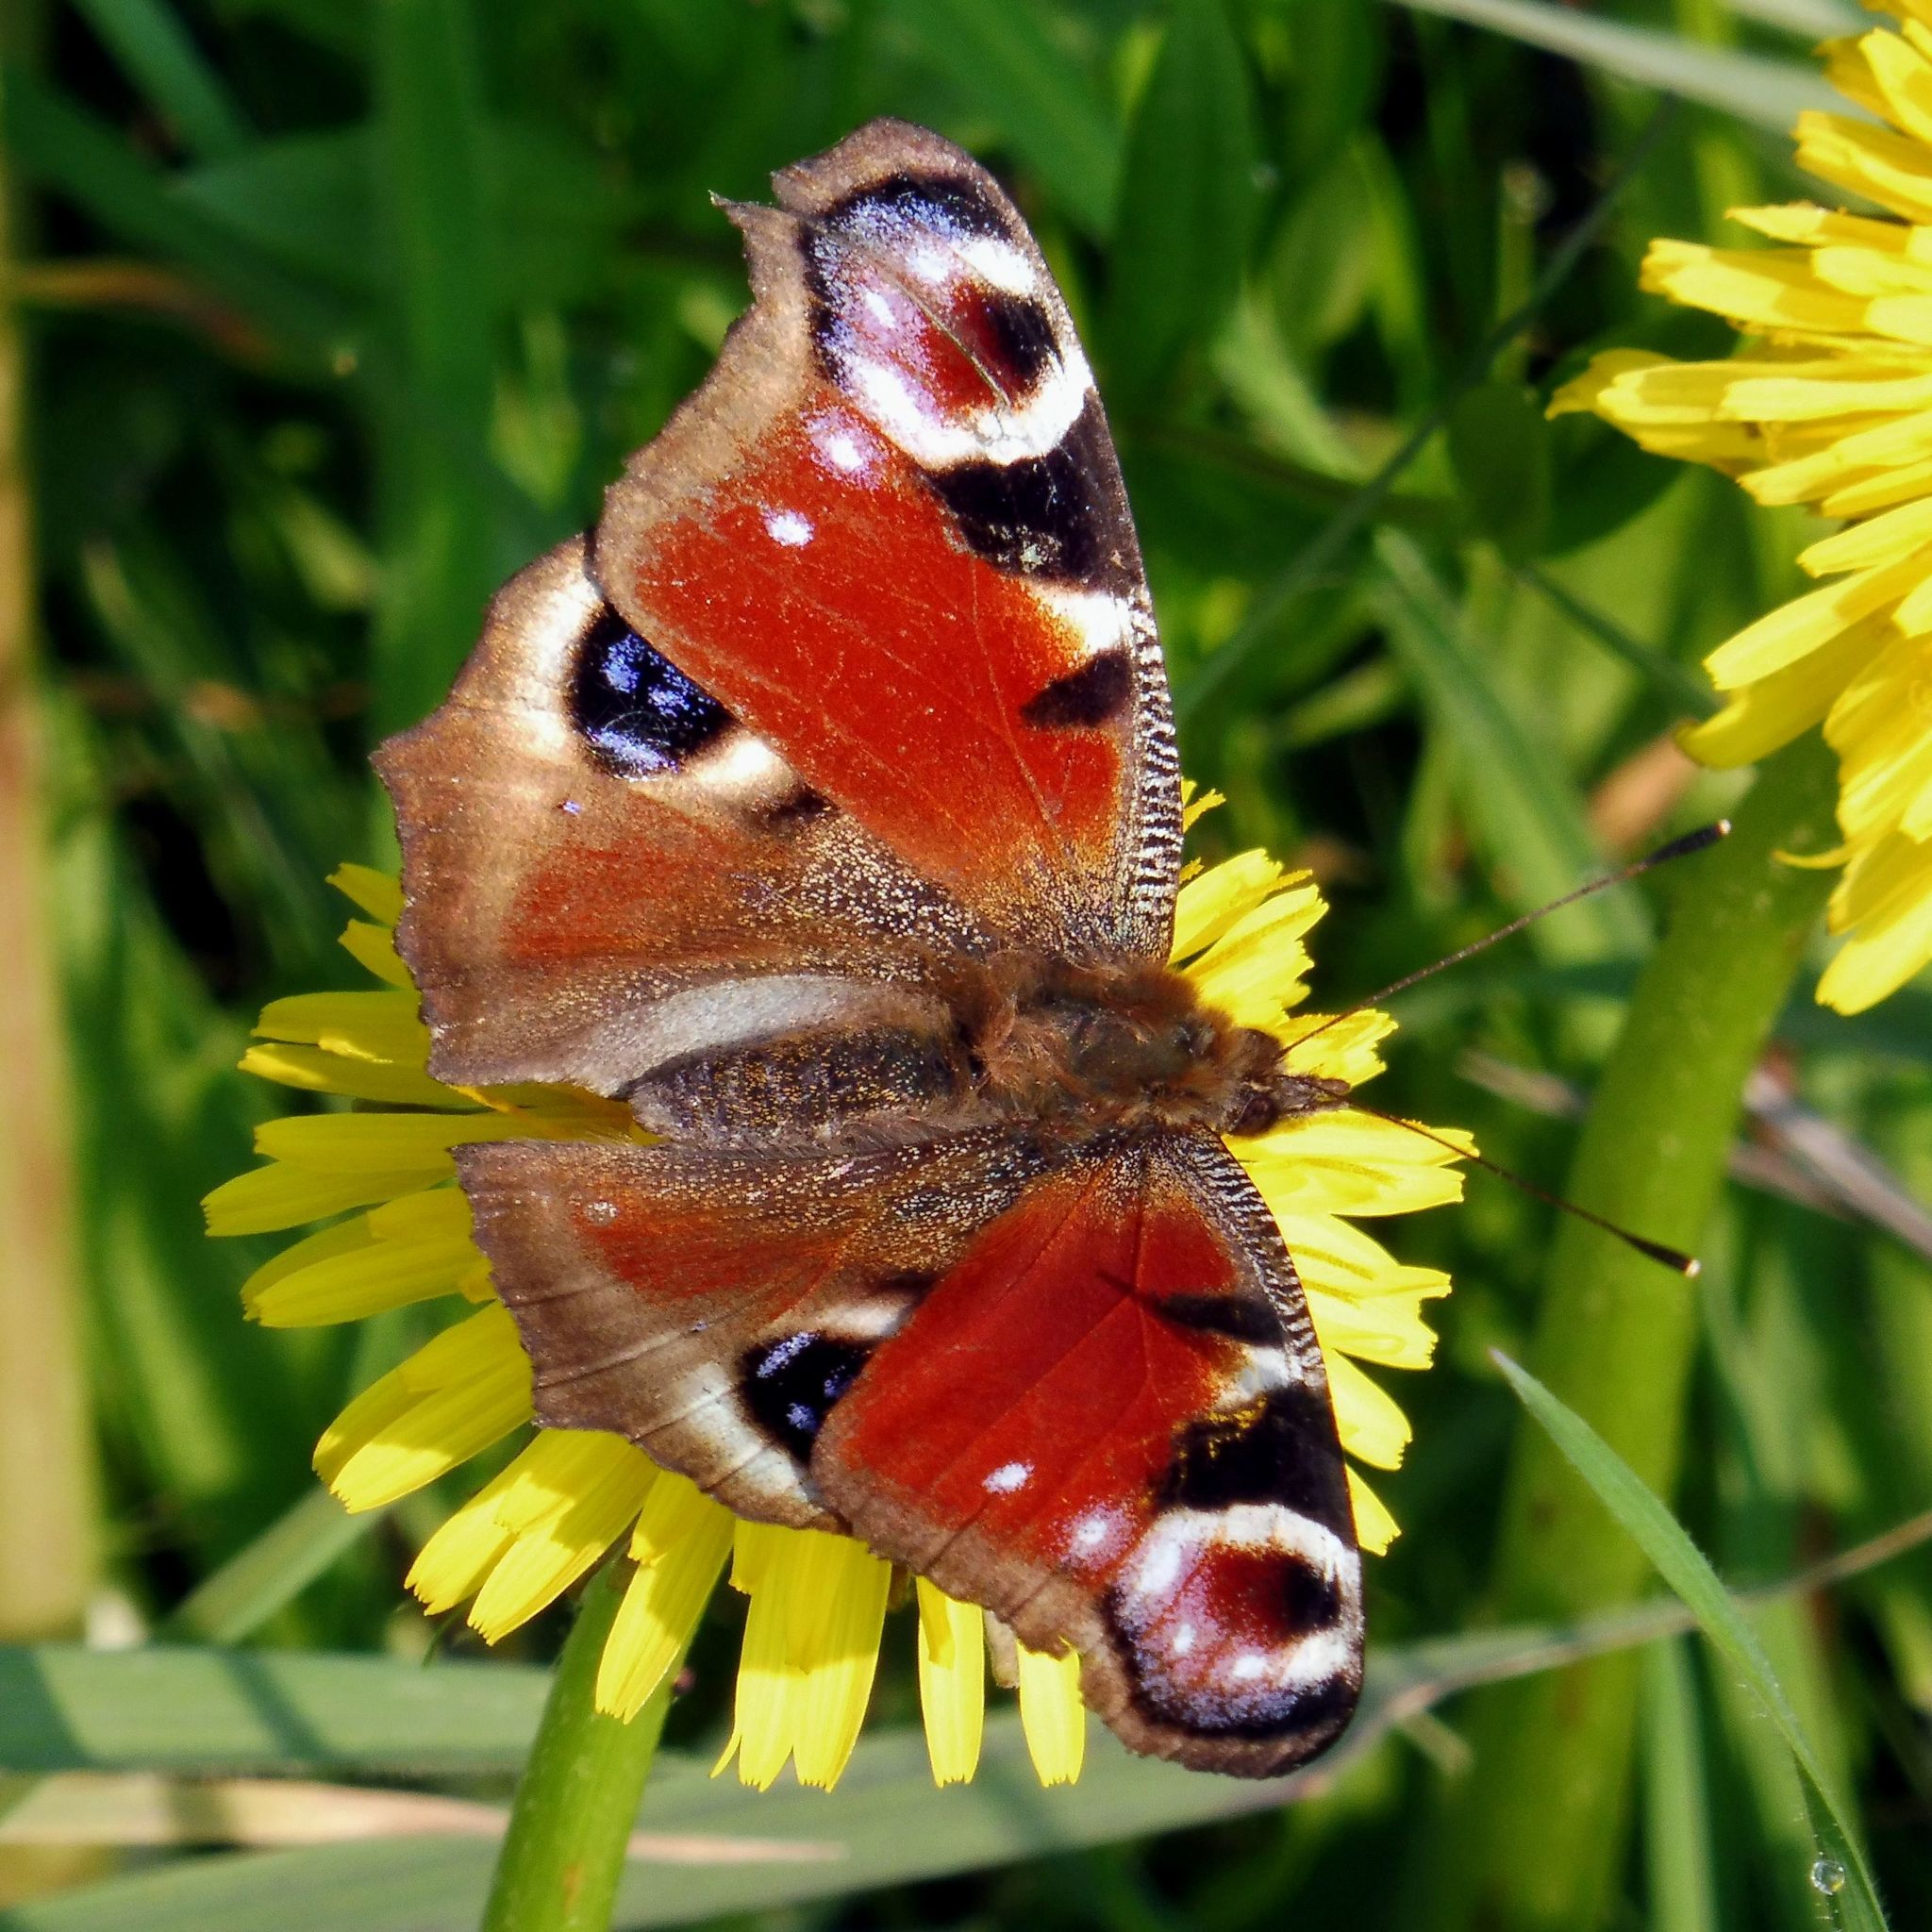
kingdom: Animalia
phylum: Arthropoda
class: Insecta
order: Lepidoptera
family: Nymphalidae
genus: Aglais
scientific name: Aglais io
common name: Peacock
